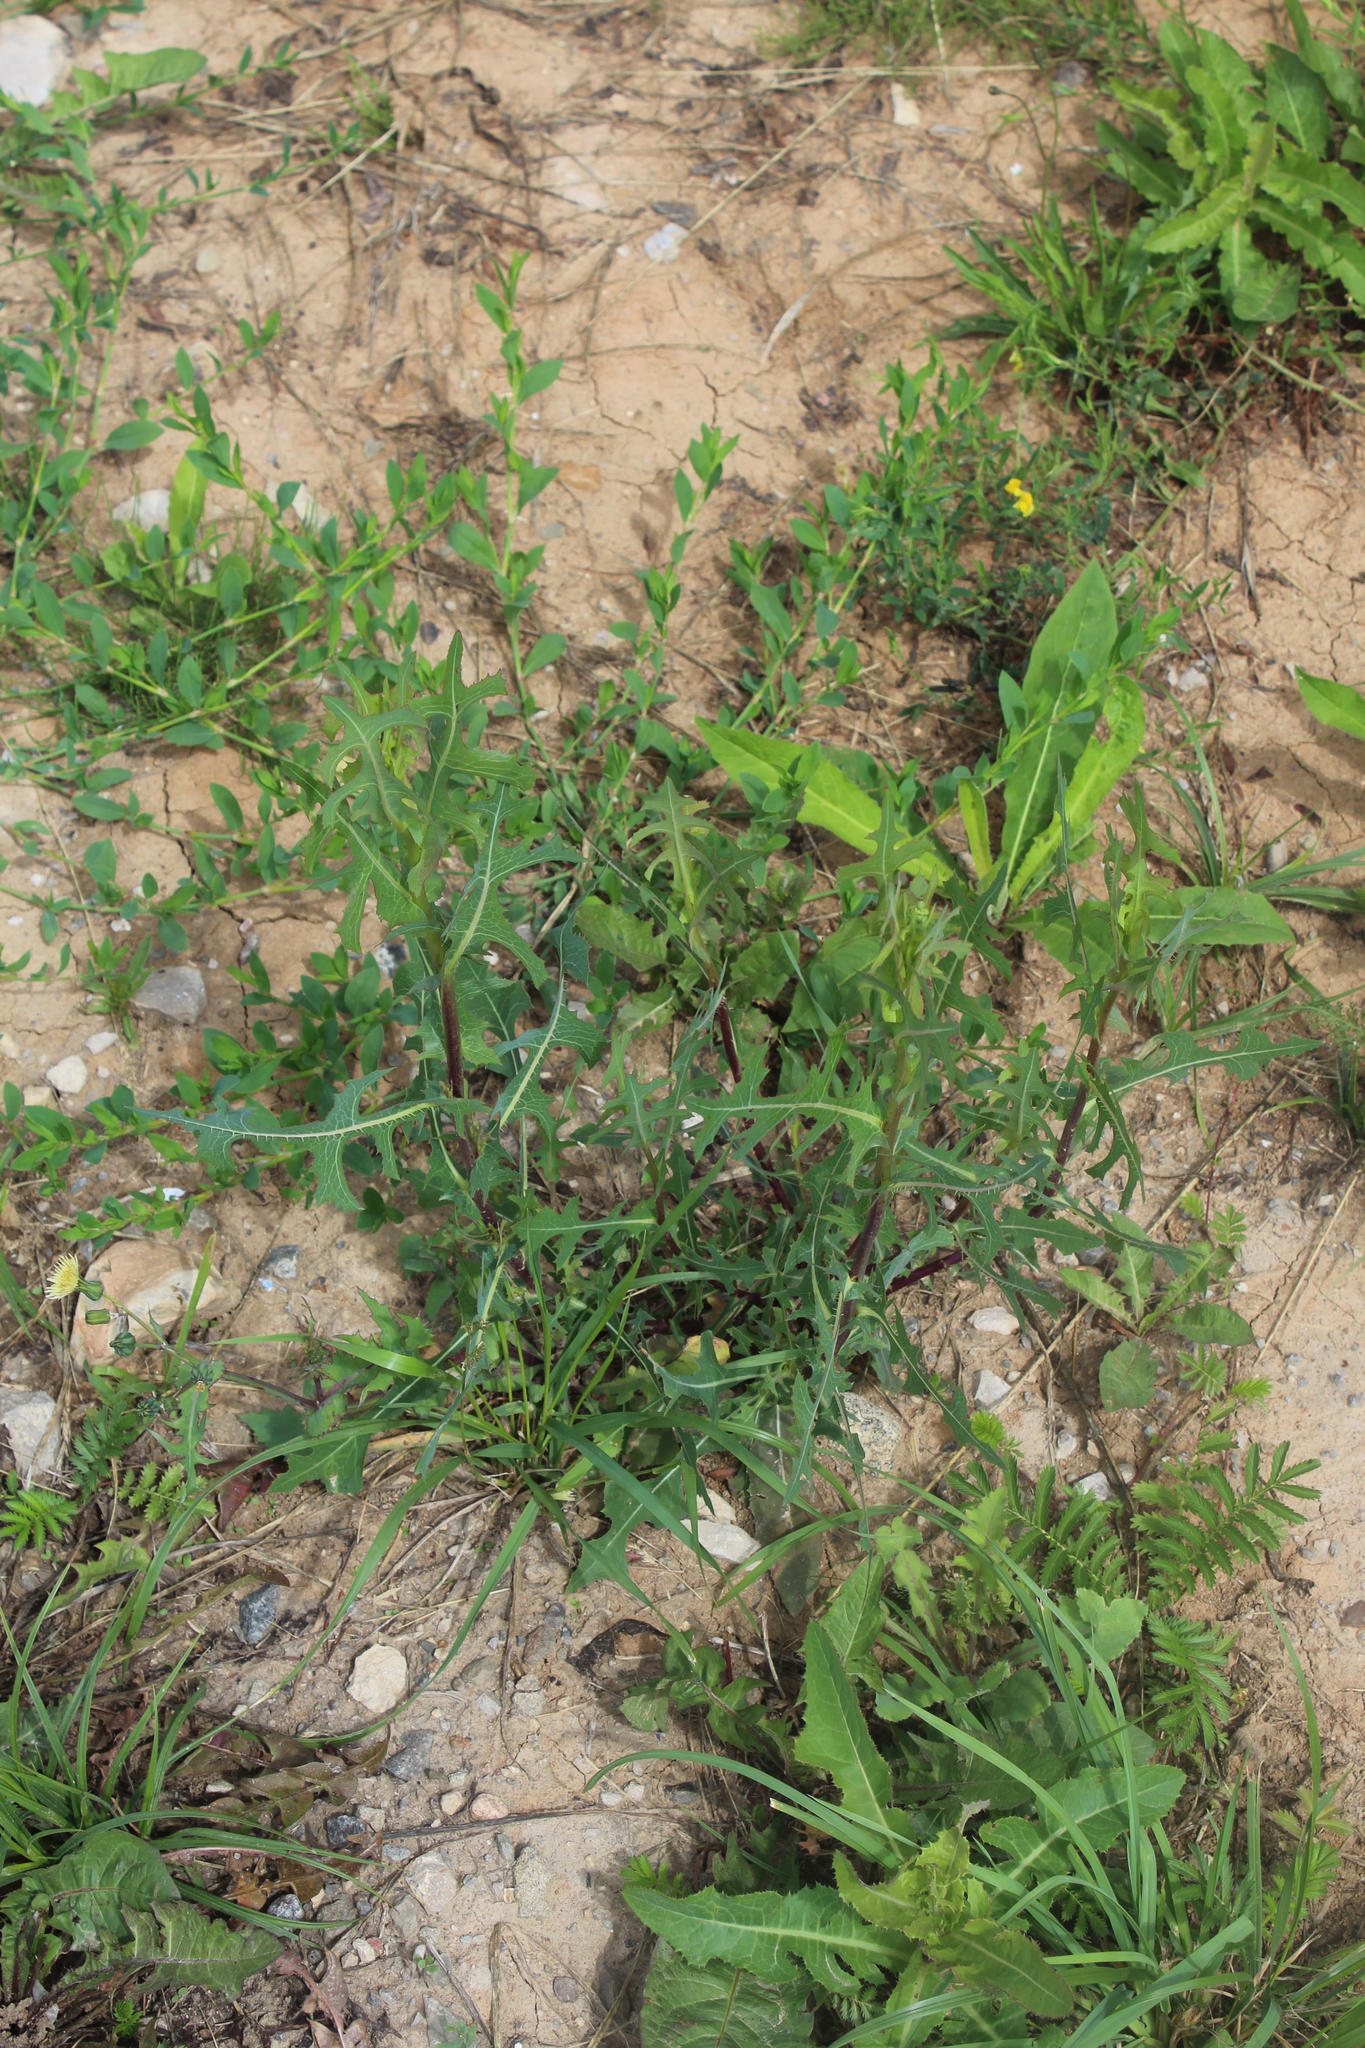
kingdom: Plantae
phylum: Tracheophyta
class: Magnoliopsida
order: Asterales
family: Asteraceae
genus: Lactuca
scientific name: Lactuca serriola
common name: Prickly lettuce
